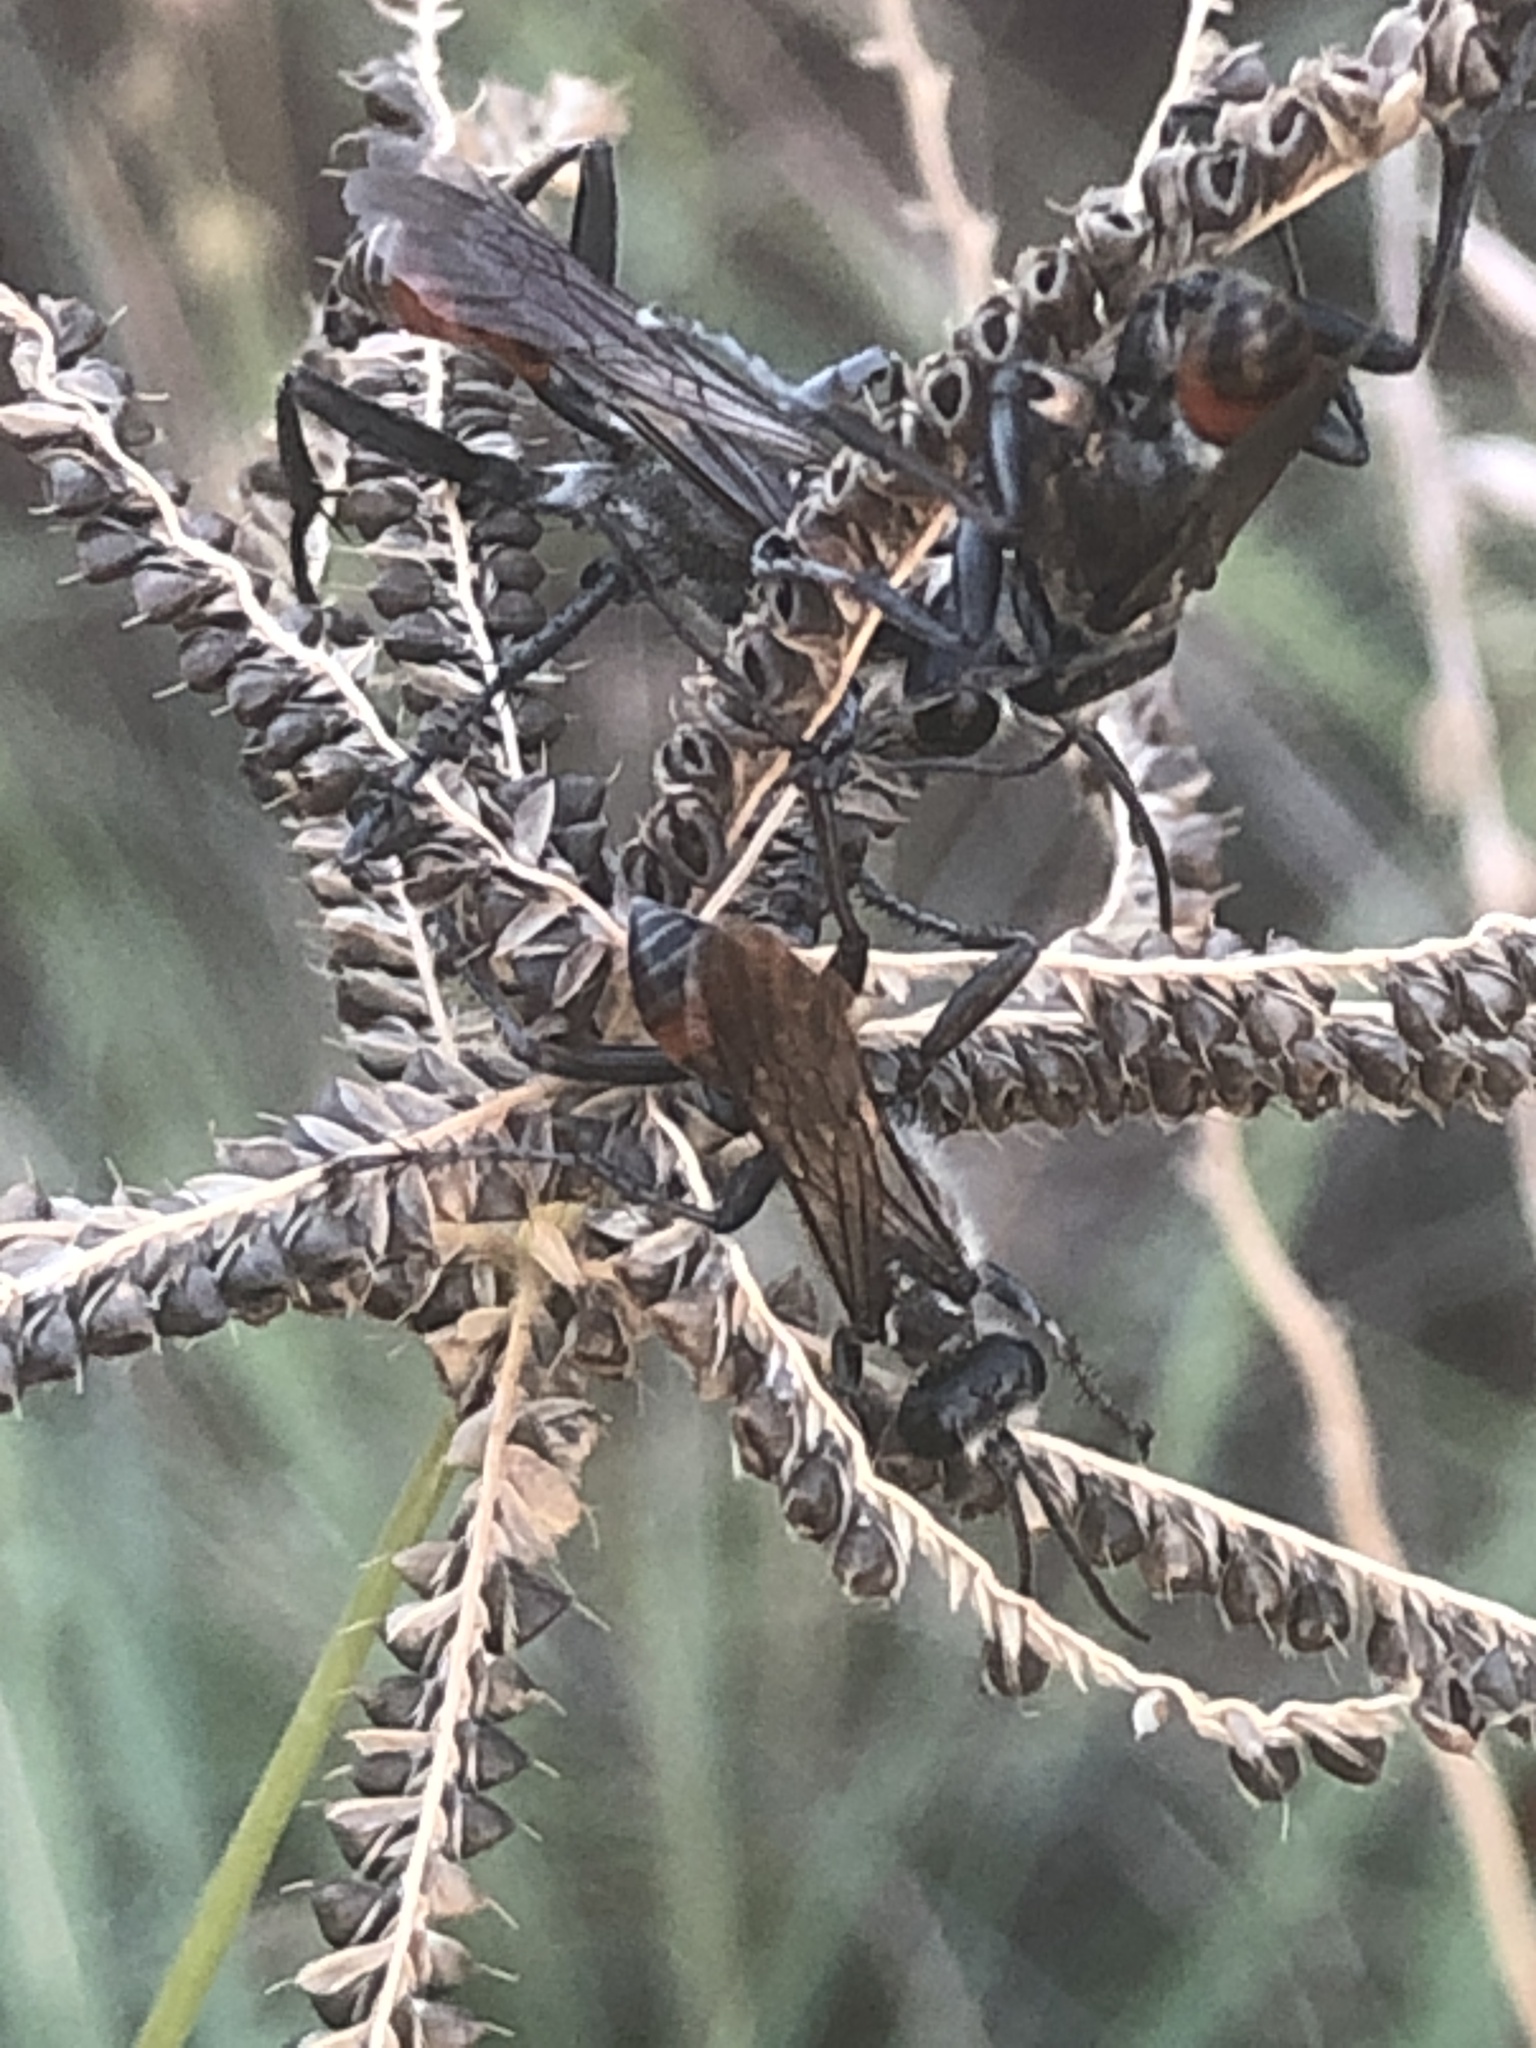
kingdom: Animalia
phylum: Arthropoda
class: Insecta
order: Hymenoptera
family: Sphecidae
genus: Prionyx
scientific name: Prionyx canadensis
